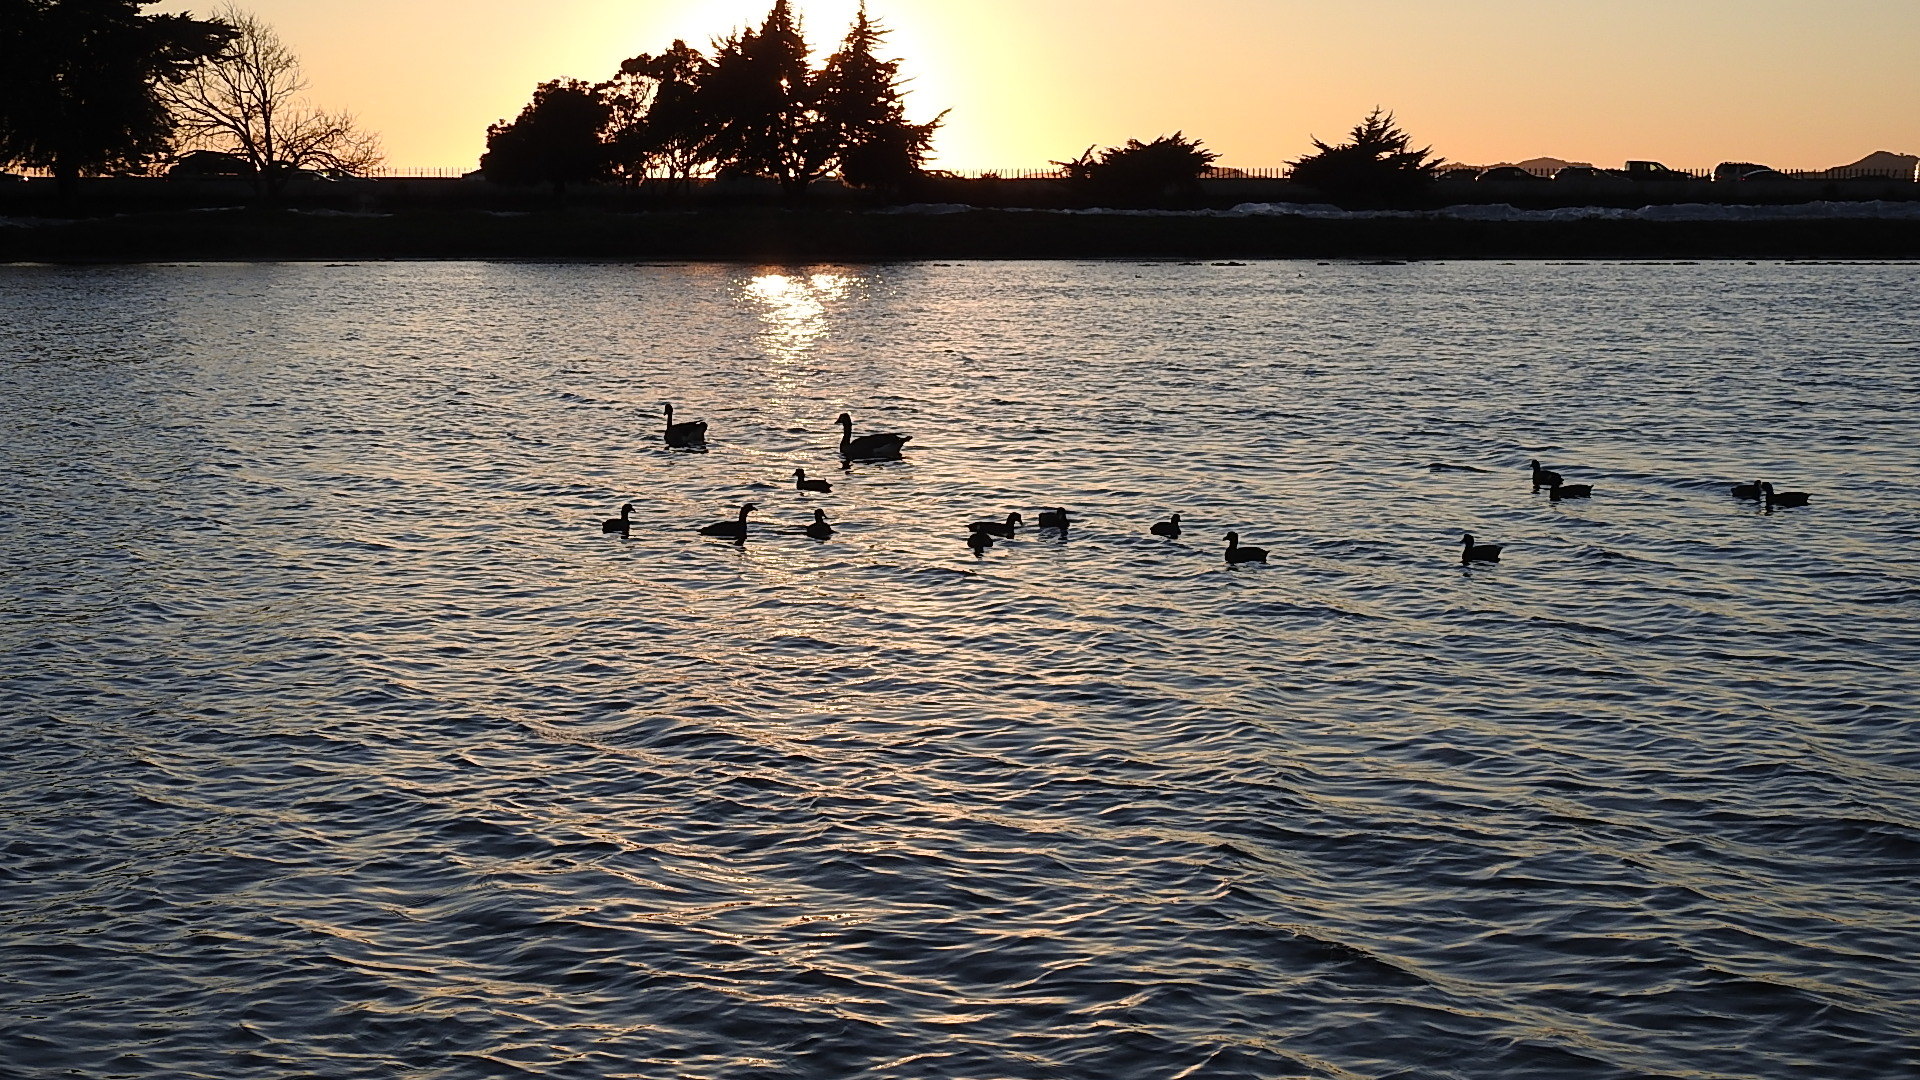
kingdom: Animalia
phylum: Chordata
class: Aves
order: Gruiformes
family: Rallidae
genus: Fulica
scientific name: Fulica americana
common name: American coot
